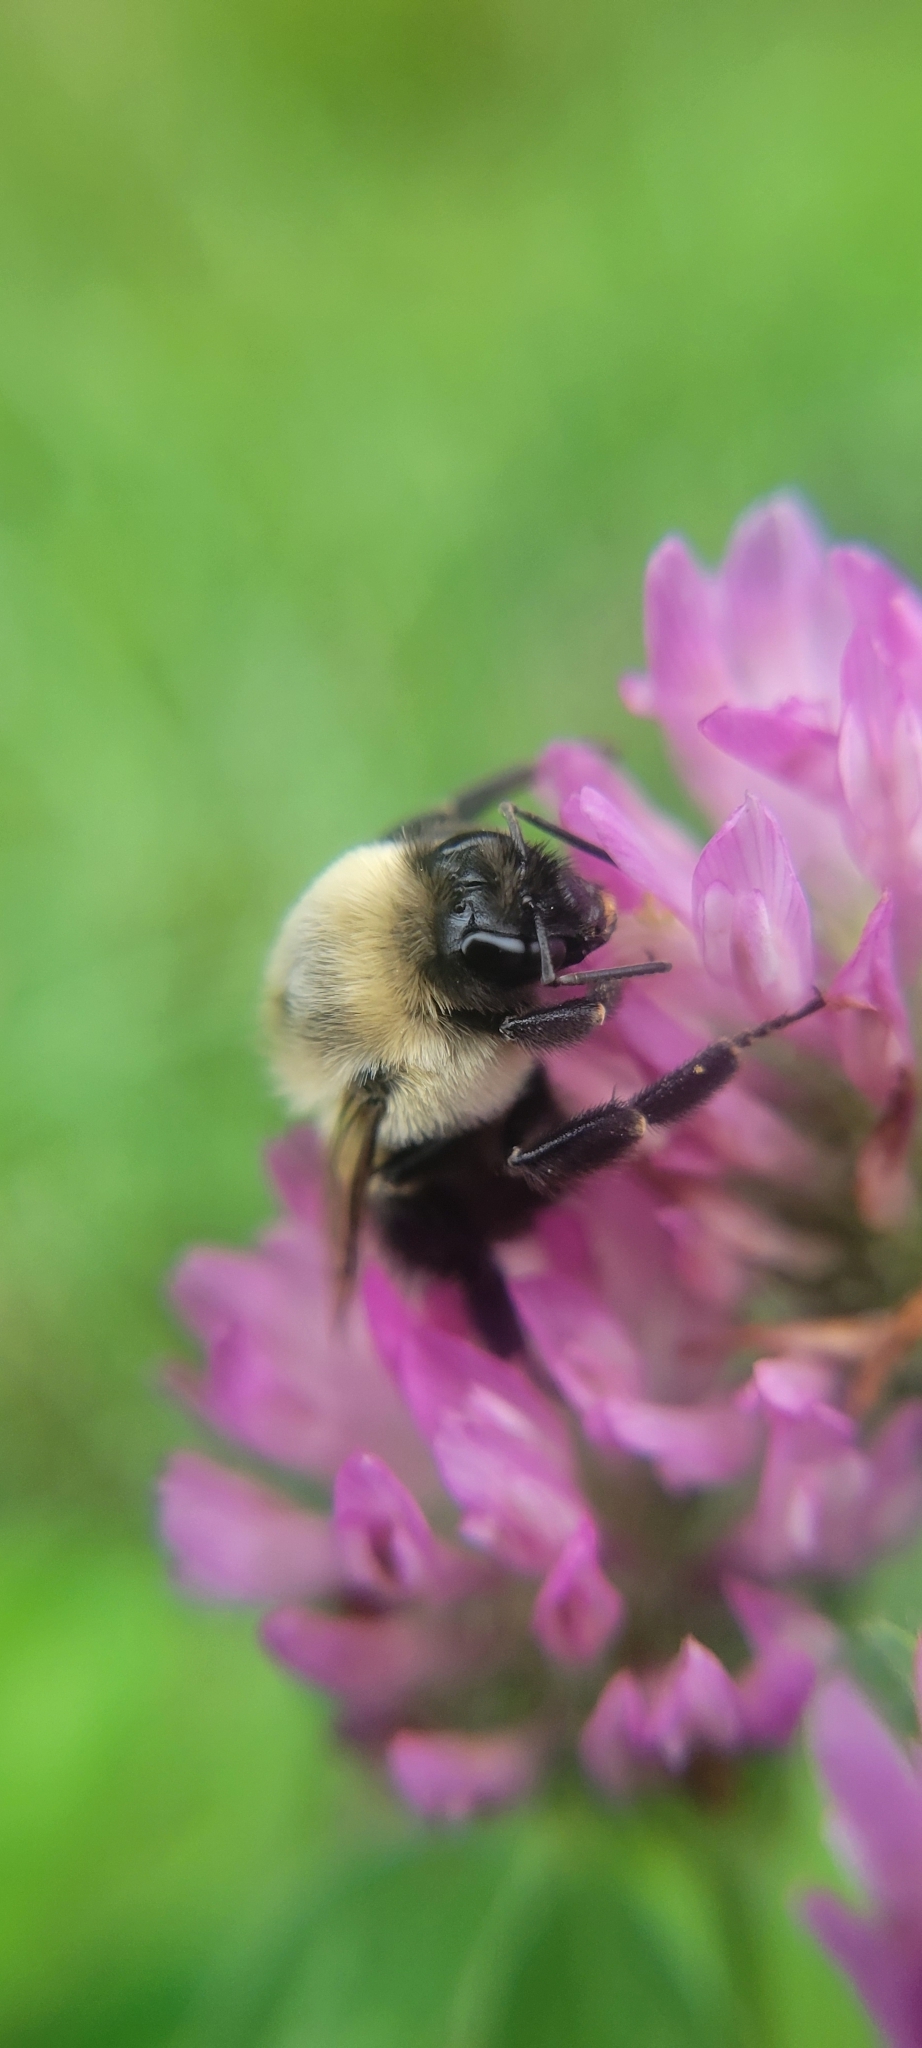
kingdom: Animalia
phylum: Arthropoda
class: Insecta
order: Hymenoptera
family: Apidae
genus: Bombus
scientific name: Bombus impatiens
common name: Common eastern bumble bee
